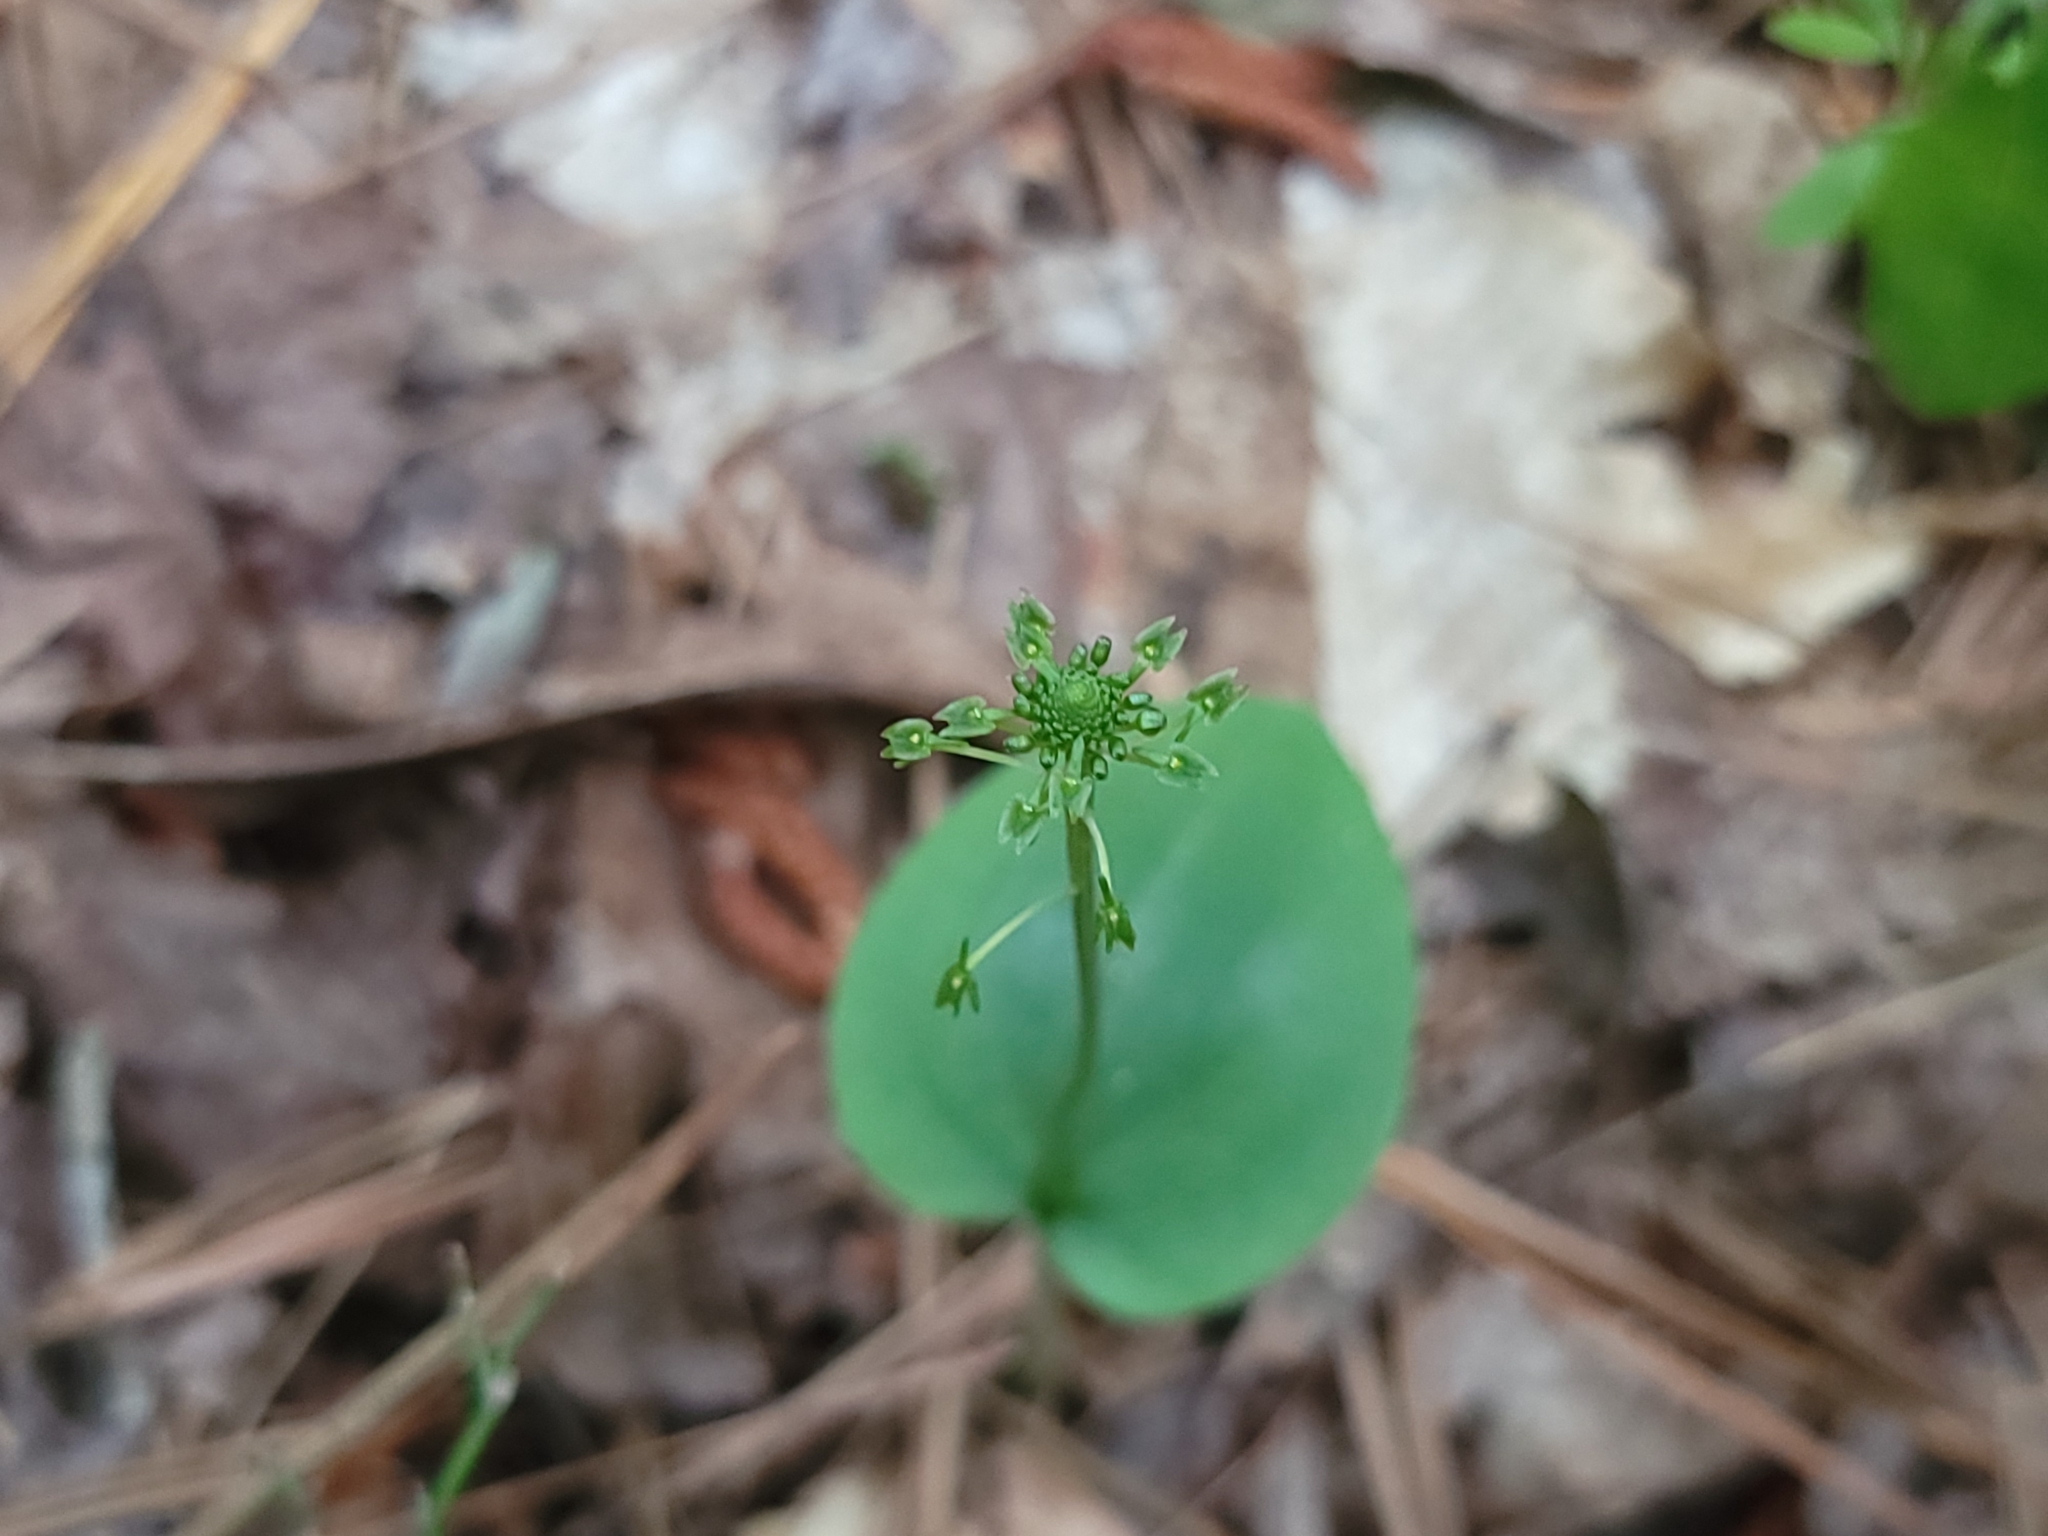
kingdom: Plantae
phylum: Tracheophyta
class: Liliopsida
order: Asparagales
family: Orchidaceae
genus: Malaxis
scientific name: Malaxis unifolia
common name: Green adder's-mouth
